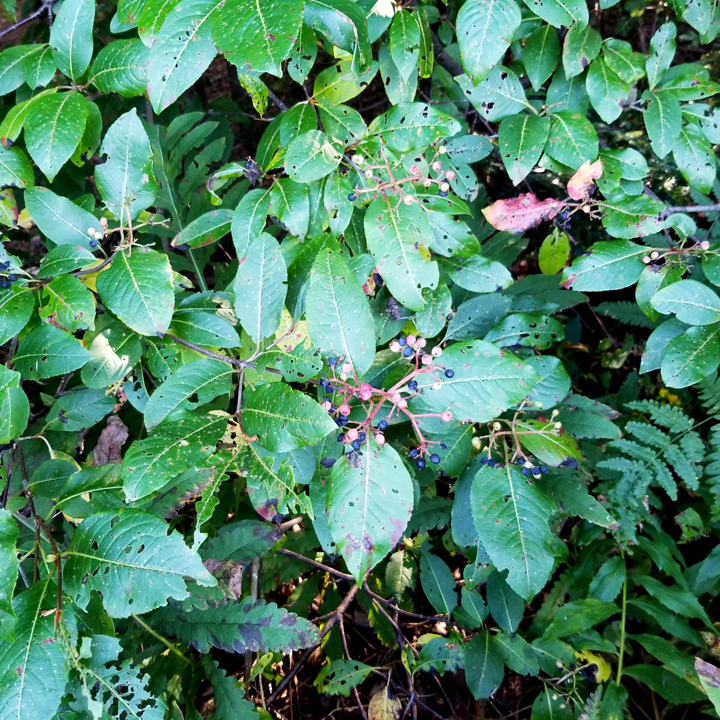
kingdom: Plantae
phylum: Tracheophyta
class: Magnoliopsida
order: Dipsacales
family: Viburnaceae
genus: Viburnum
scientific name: Viburnum cassinoides
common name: Swamp haw
